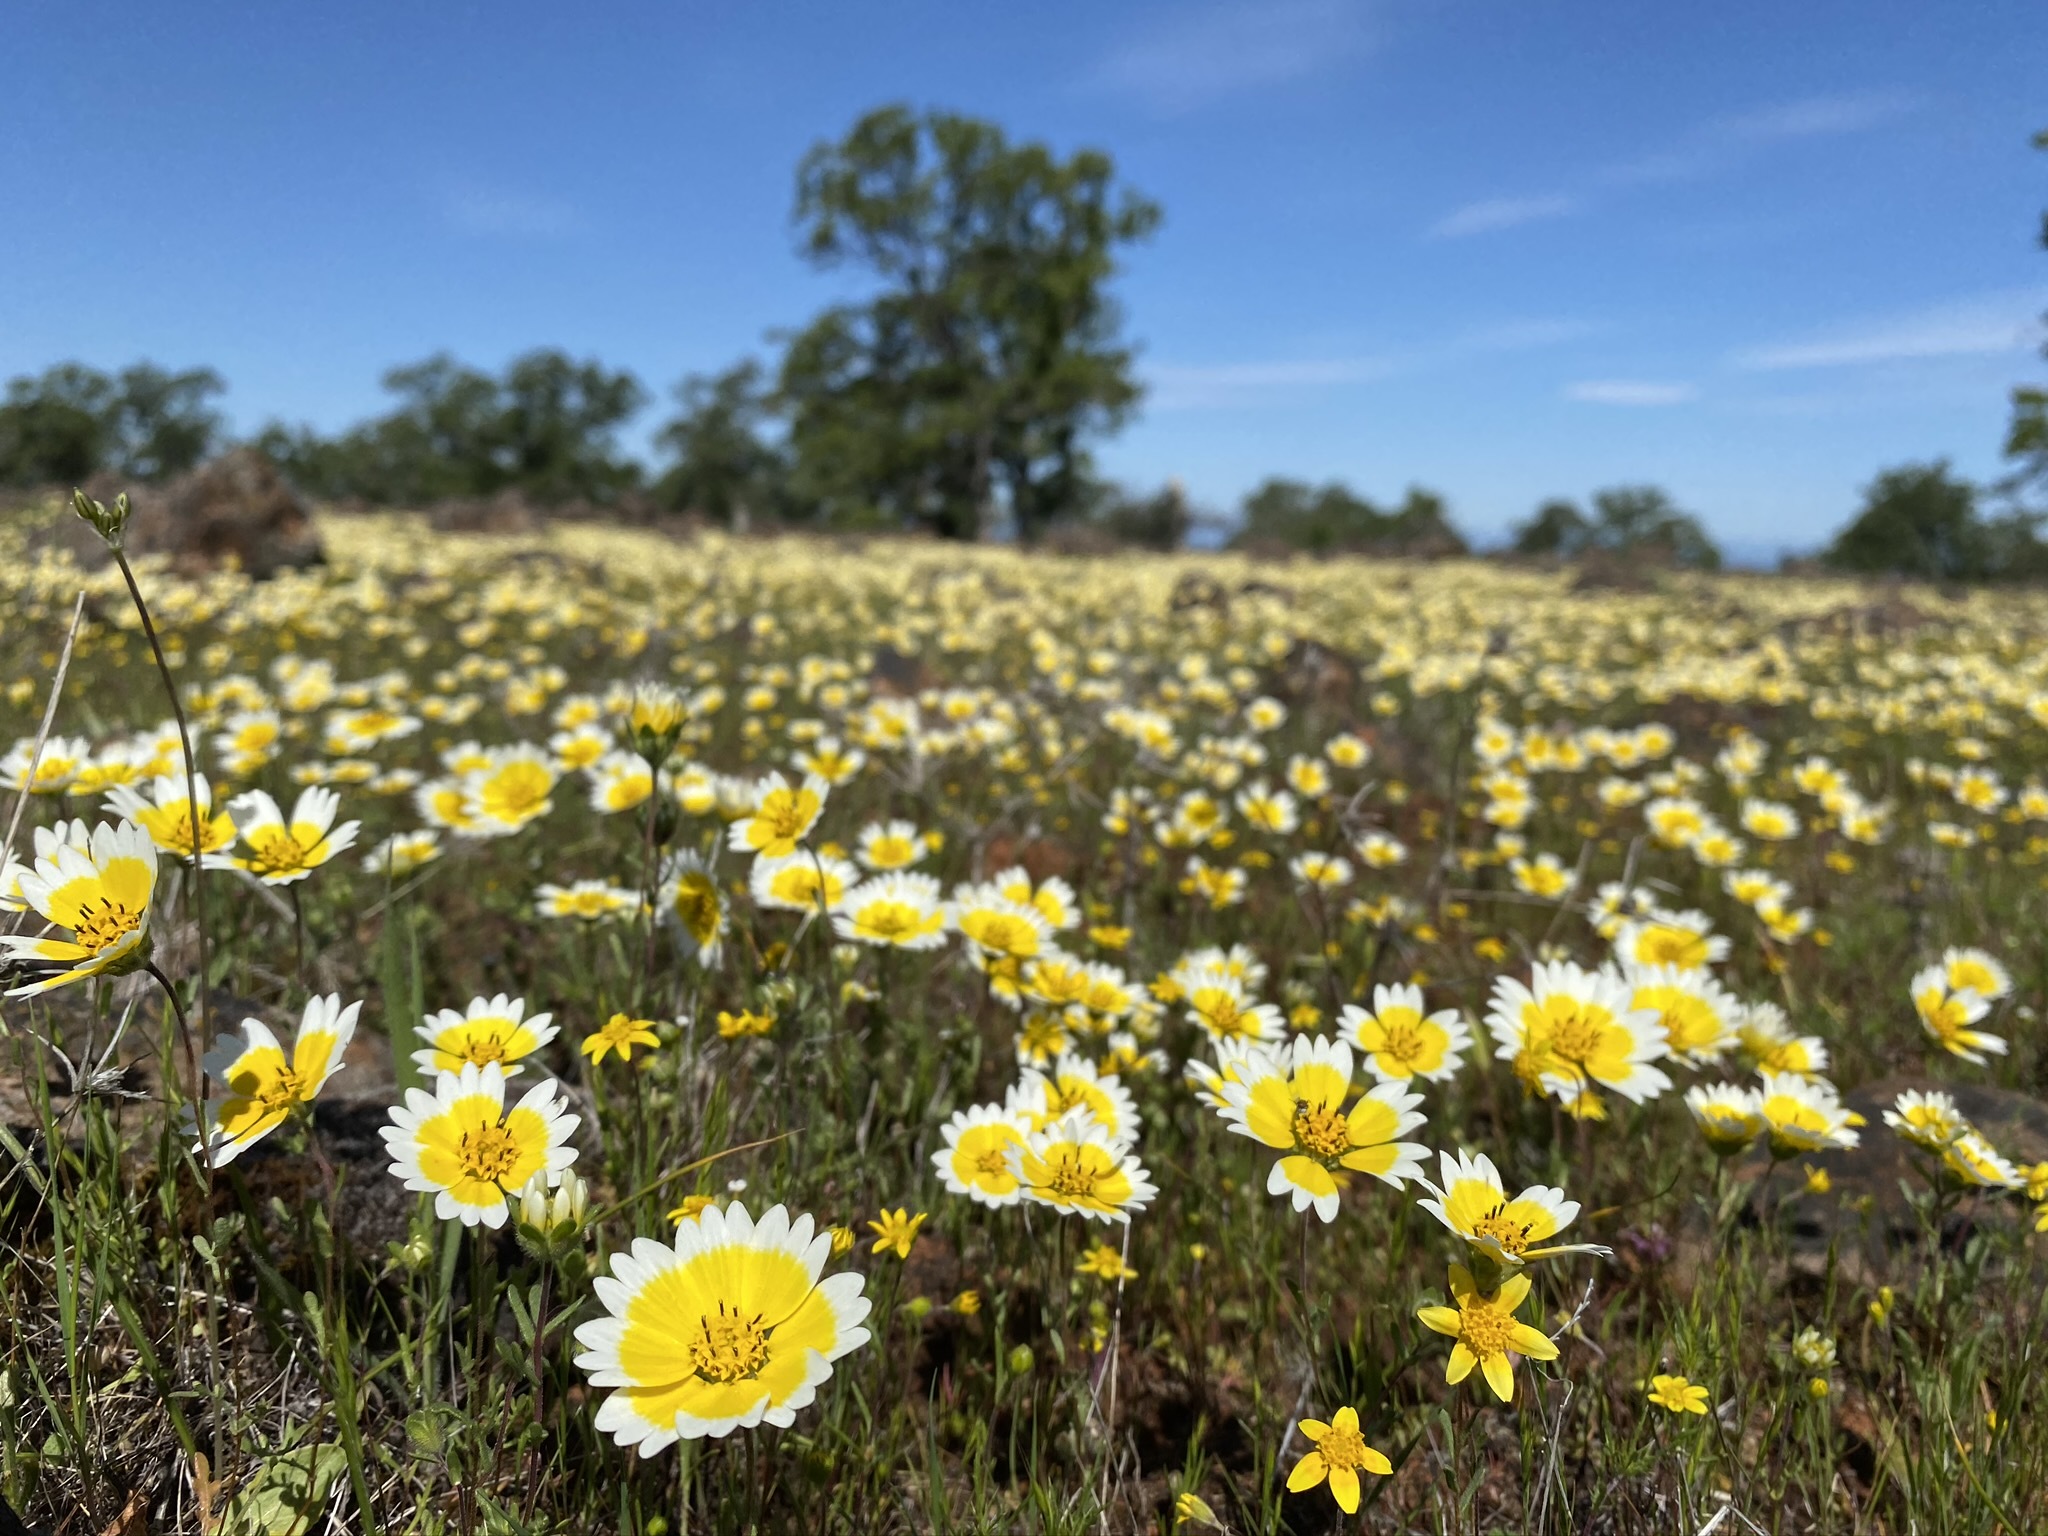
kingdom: Plantae
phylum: Tracheophyta
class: Magnoliopsida
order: Asterales
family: Asteraceae
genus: Layia
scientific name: Layia fremontii
